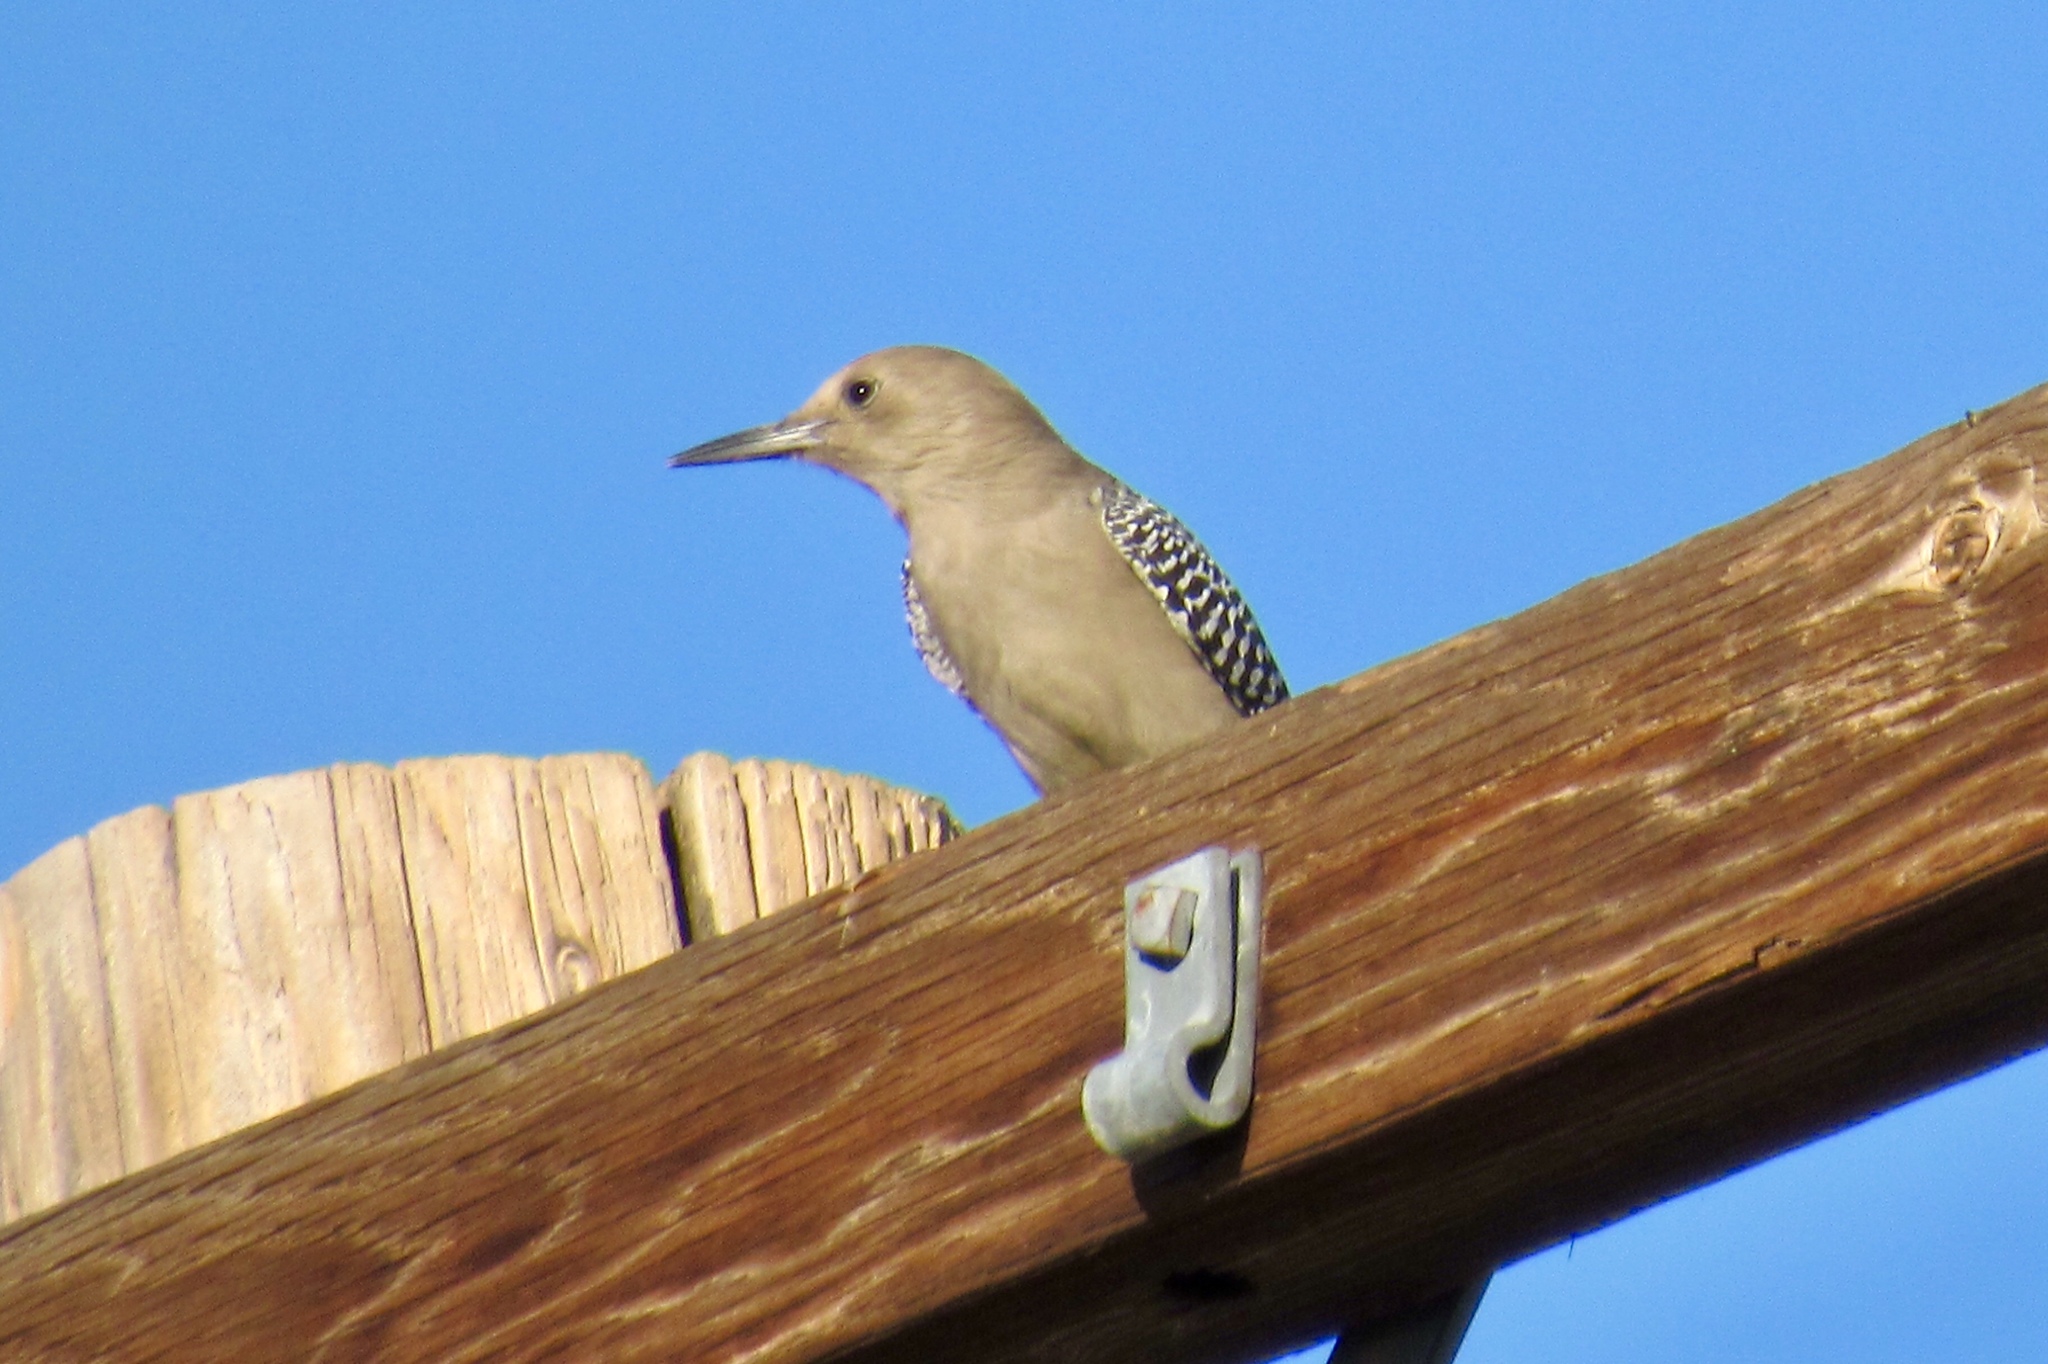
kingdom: Animalia
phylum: Chordata
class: Aves
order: Piciformes
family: Picidae
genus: Melanerpes
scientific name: Melanerpes uropygialis
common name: Gila woodpecker
